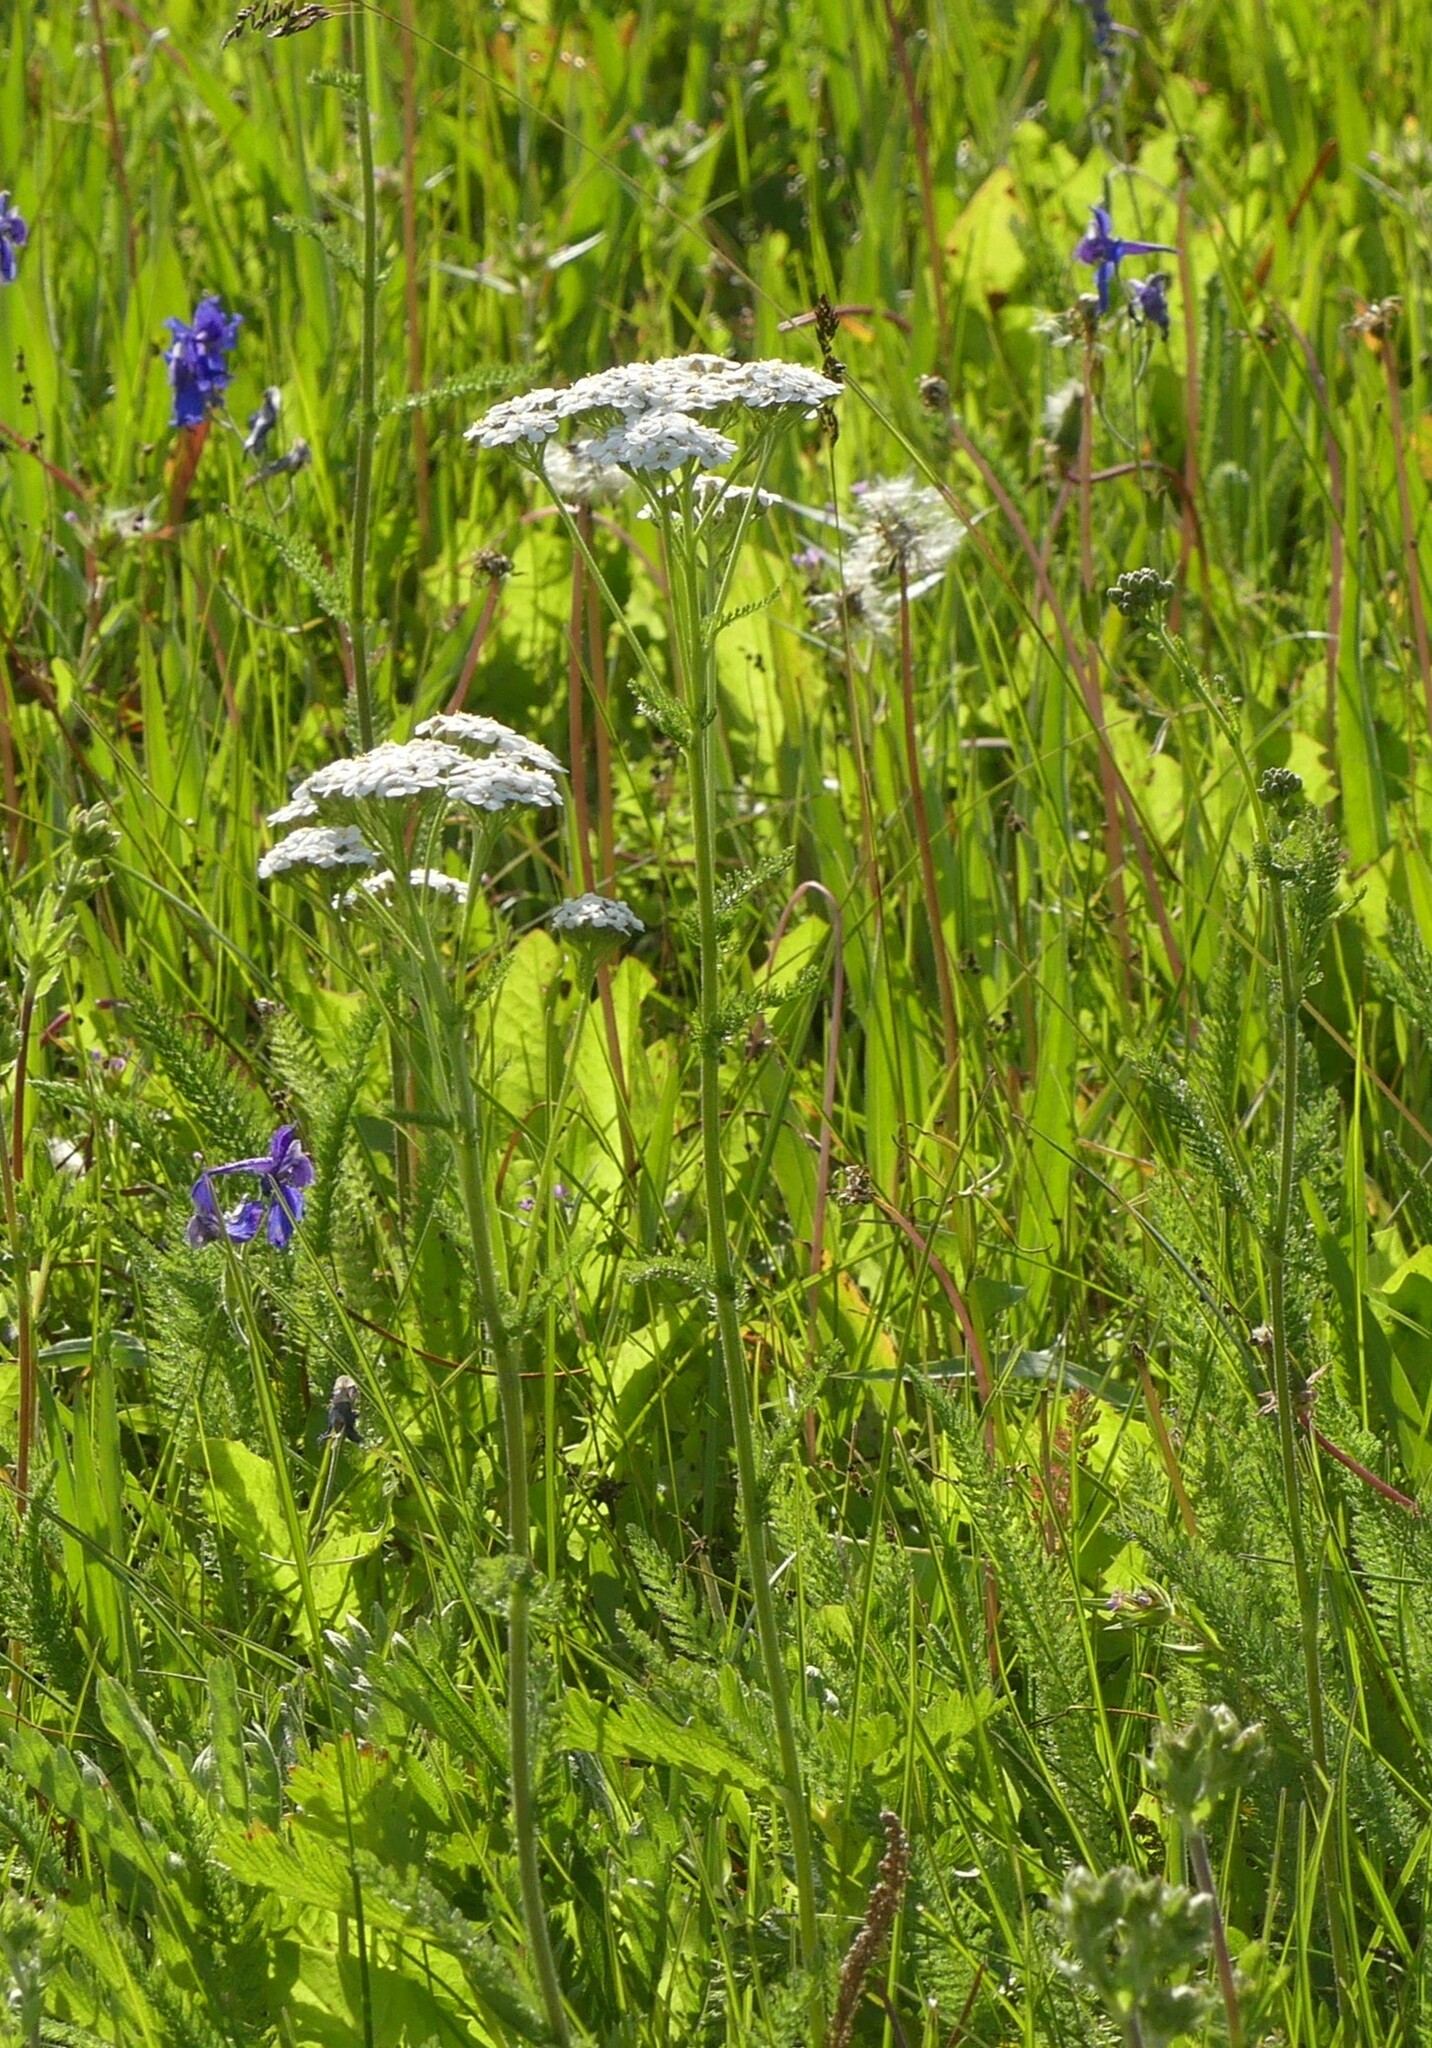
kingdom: Plantae
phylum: Tracheophyta
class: Magnoliopsida
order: Asterales
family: Asteraceae
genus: Achillea
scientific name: Achillea millefolium
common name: Yarrow
